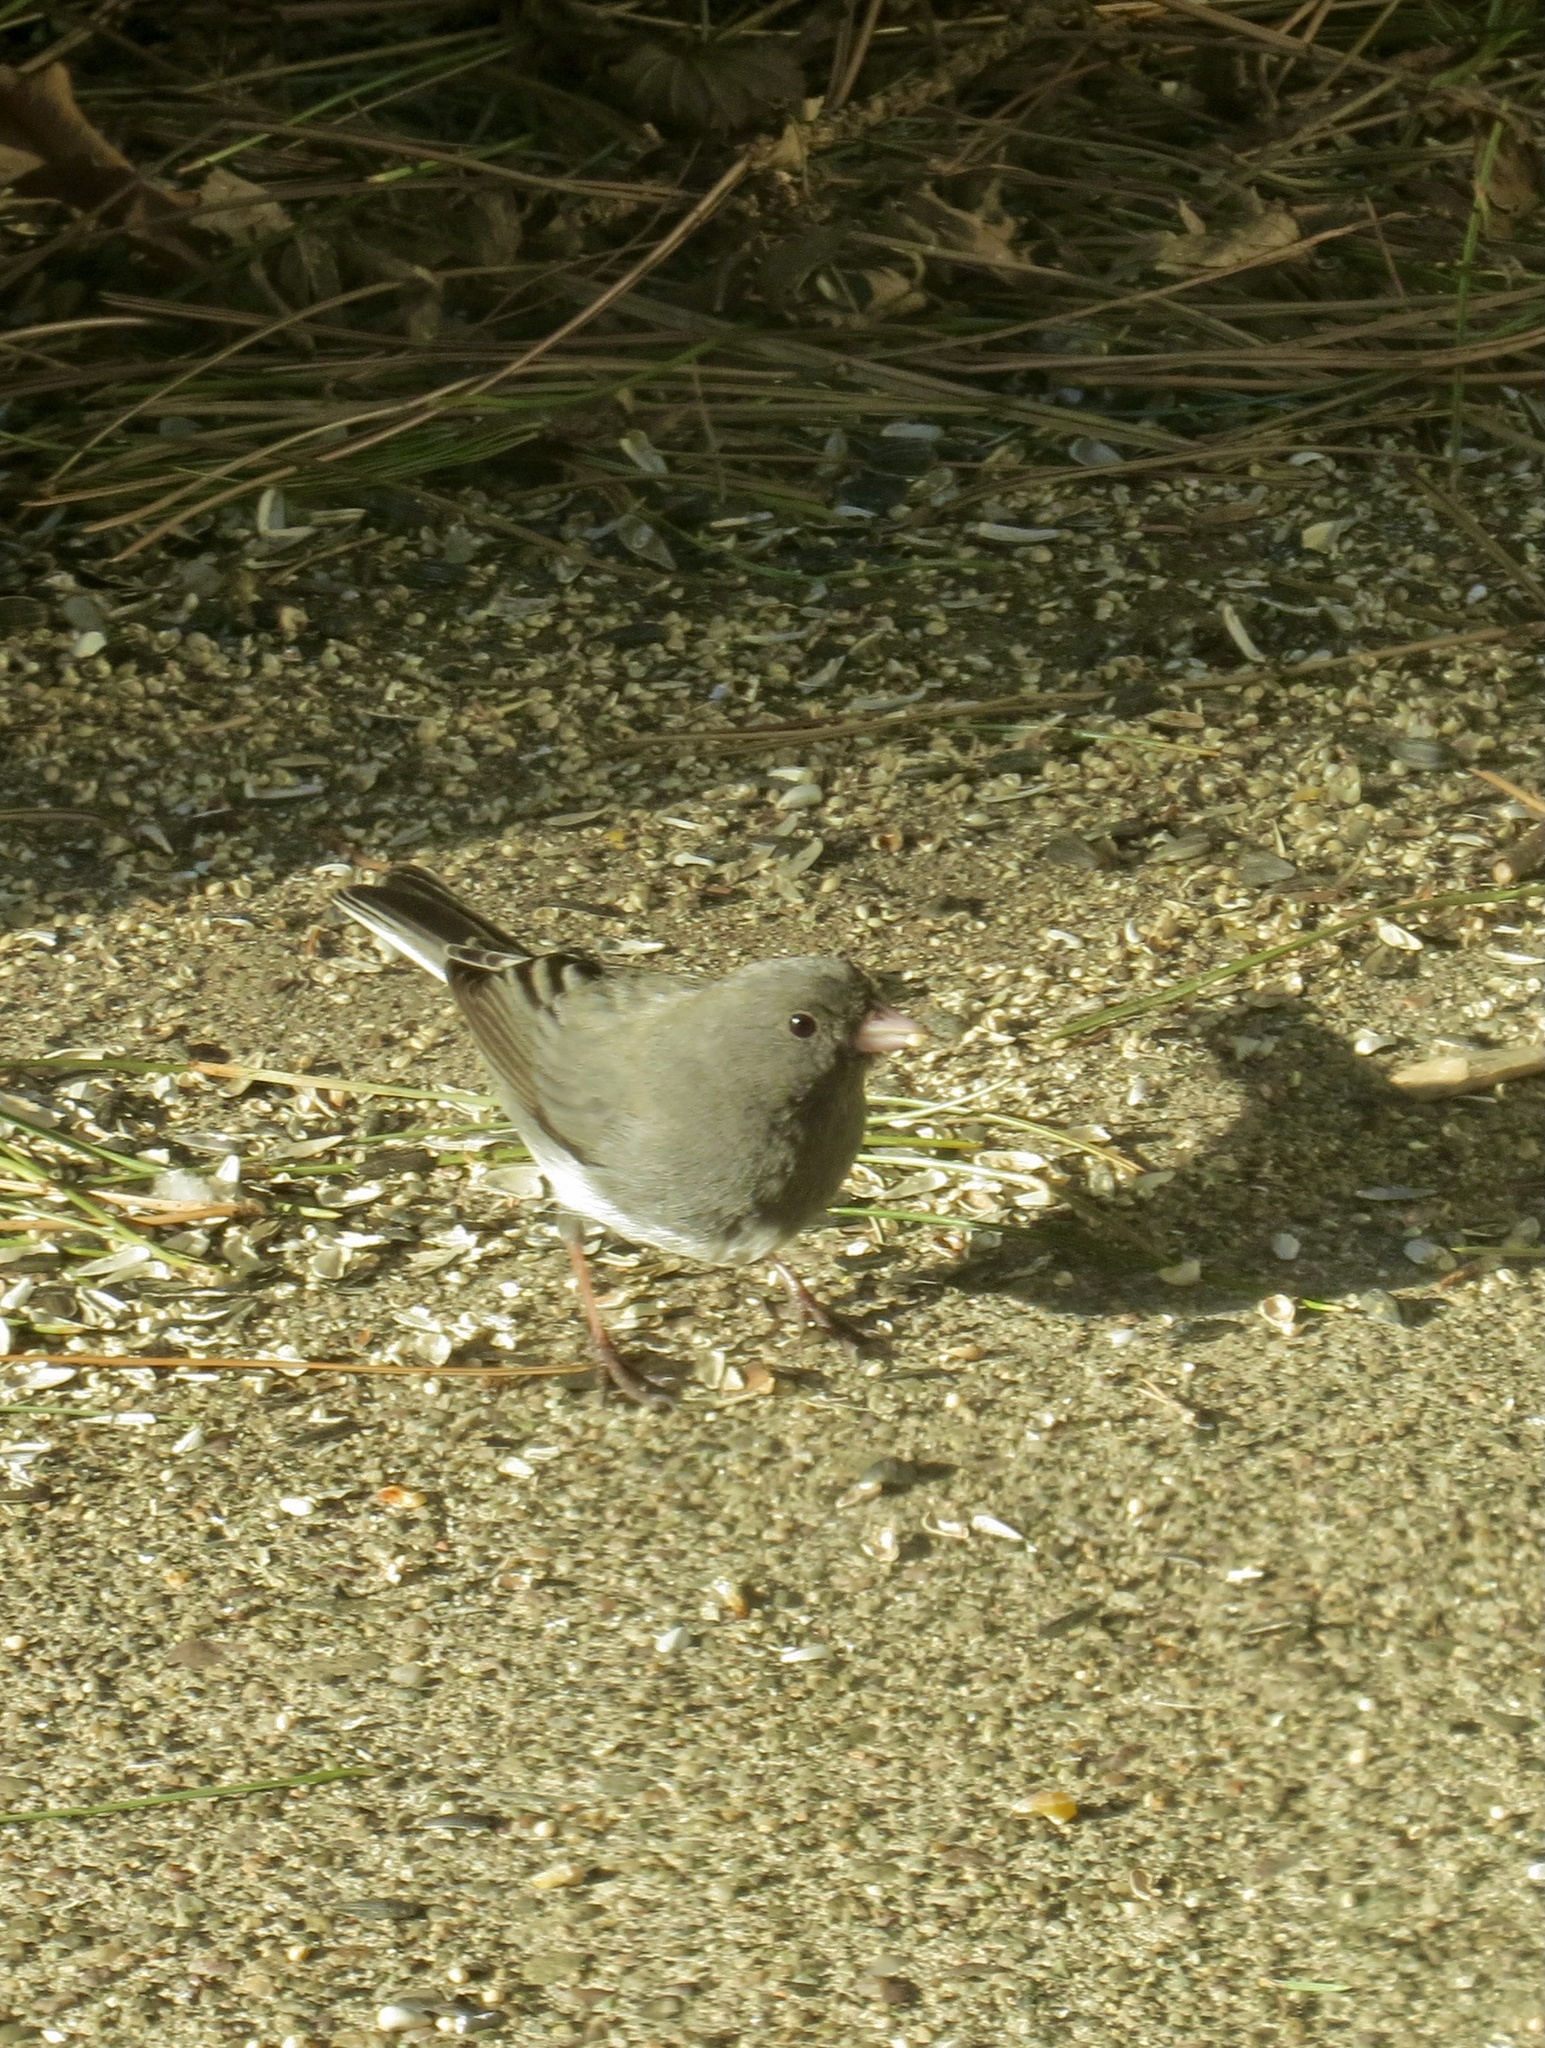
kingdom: Animalia
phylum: Chordata
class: Aves
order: Passeriformes
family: Passerellidae
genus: Junco
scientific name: Junco hyemalis
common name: Dark-eyed junco
